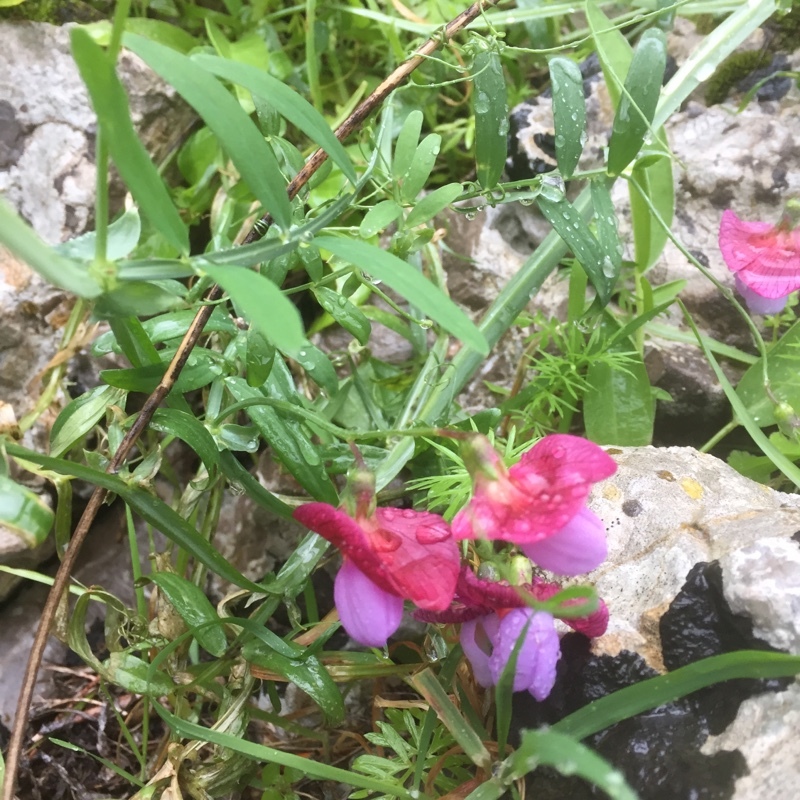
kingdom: Plantae
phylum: Tracheophyta
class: Magnoliopsida
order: Fabales
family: Fabaceae
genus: Lathyrus
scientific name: Lathyrus clymenum
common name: Spanish vetchling
